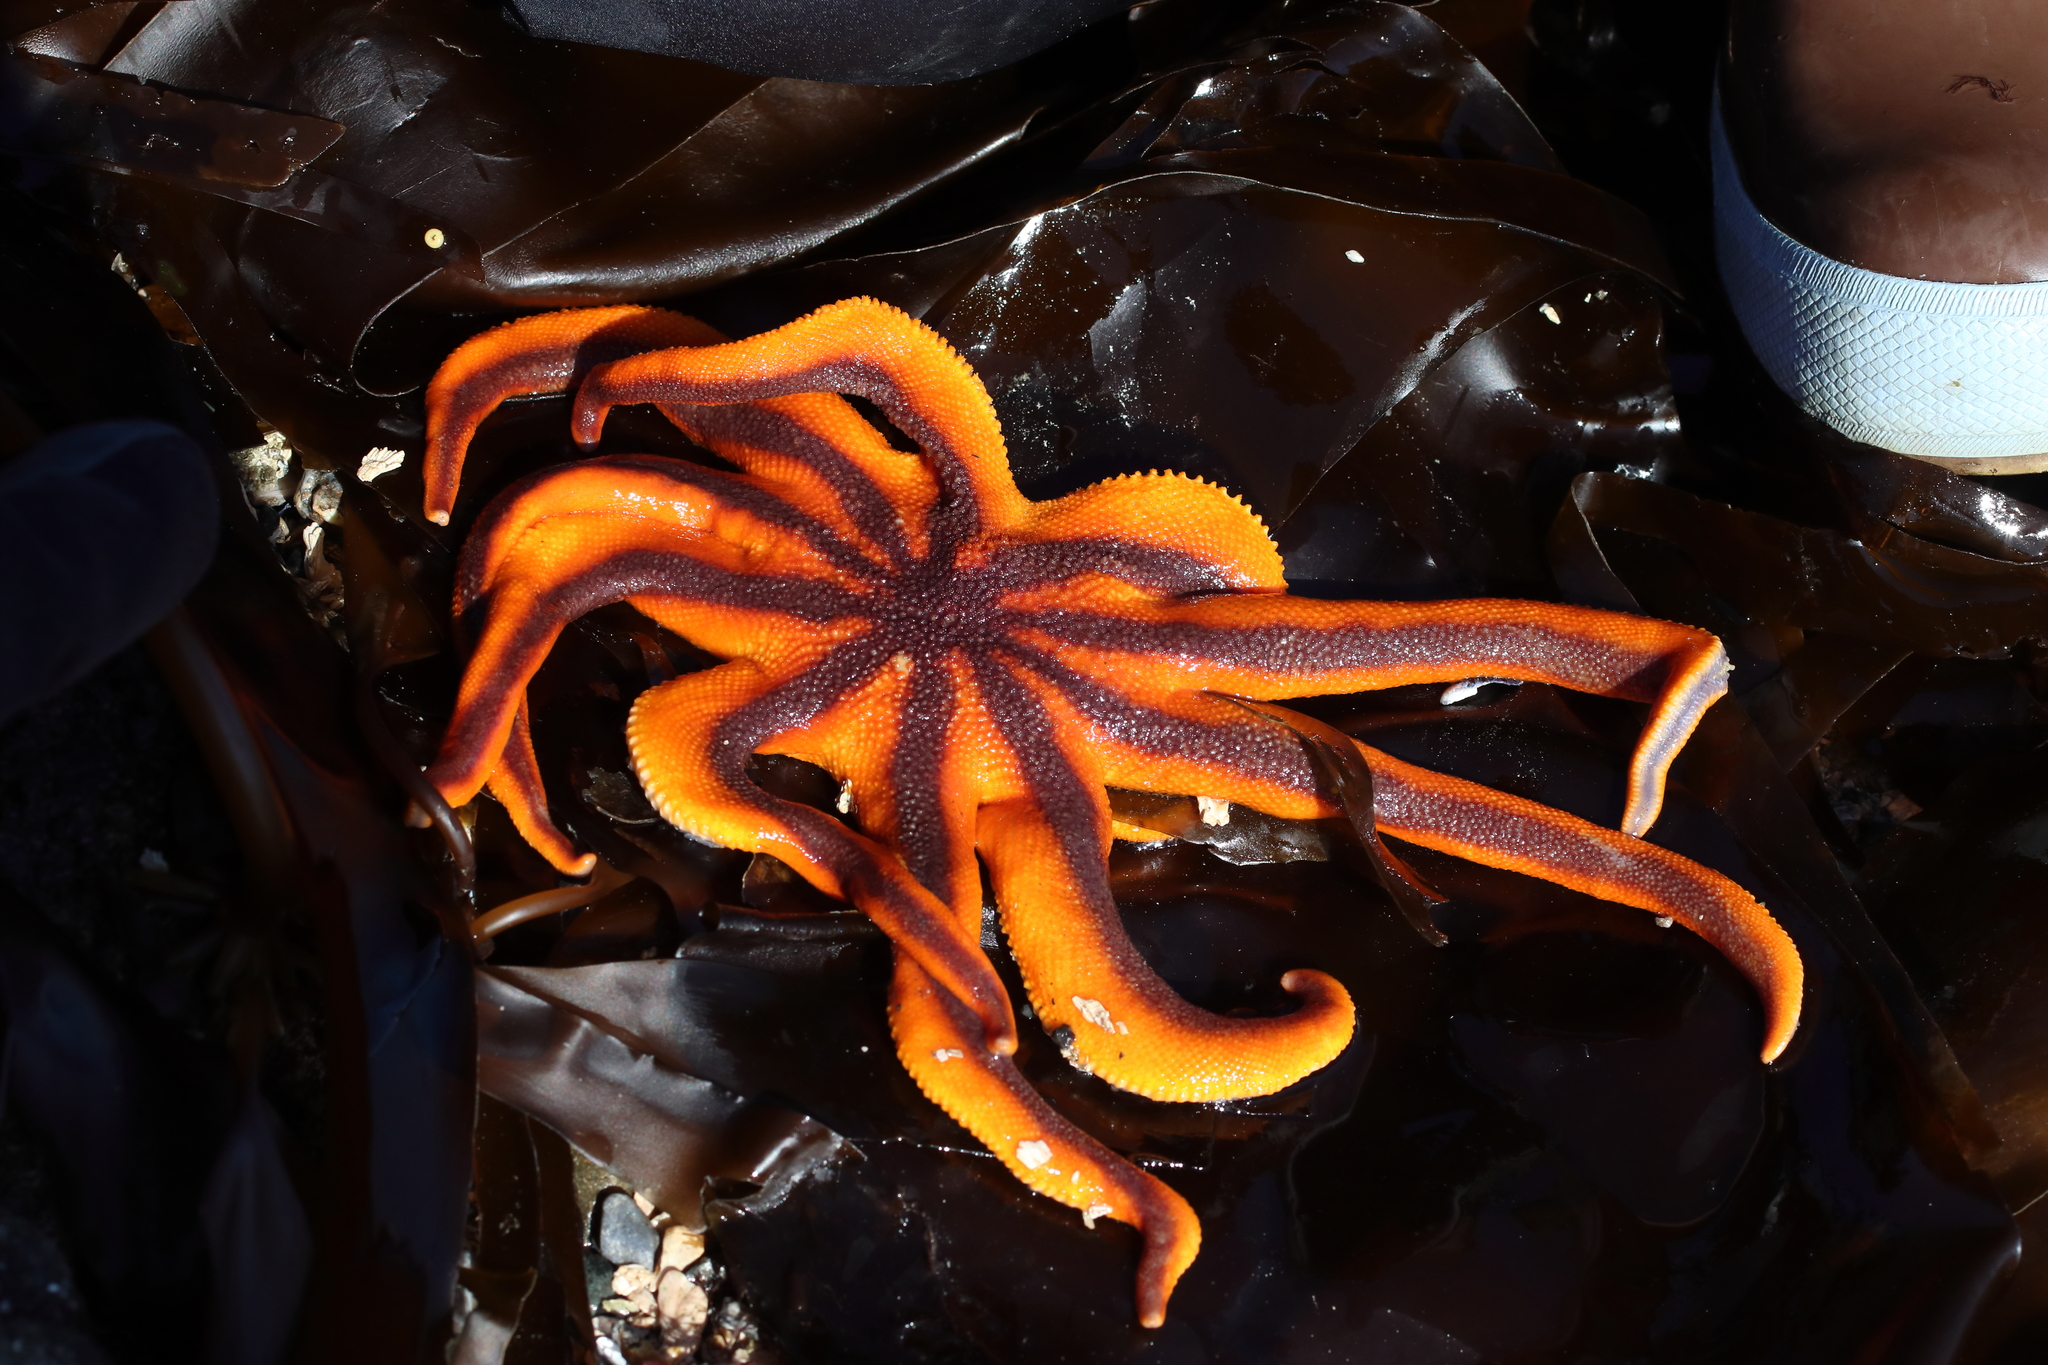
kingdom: Animalia
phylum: Echinodermata
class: Asteroidea
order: Valvatida
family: Solasteridae
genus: Solaster
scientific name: Solaster stimpsoni
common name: Orange sun star
